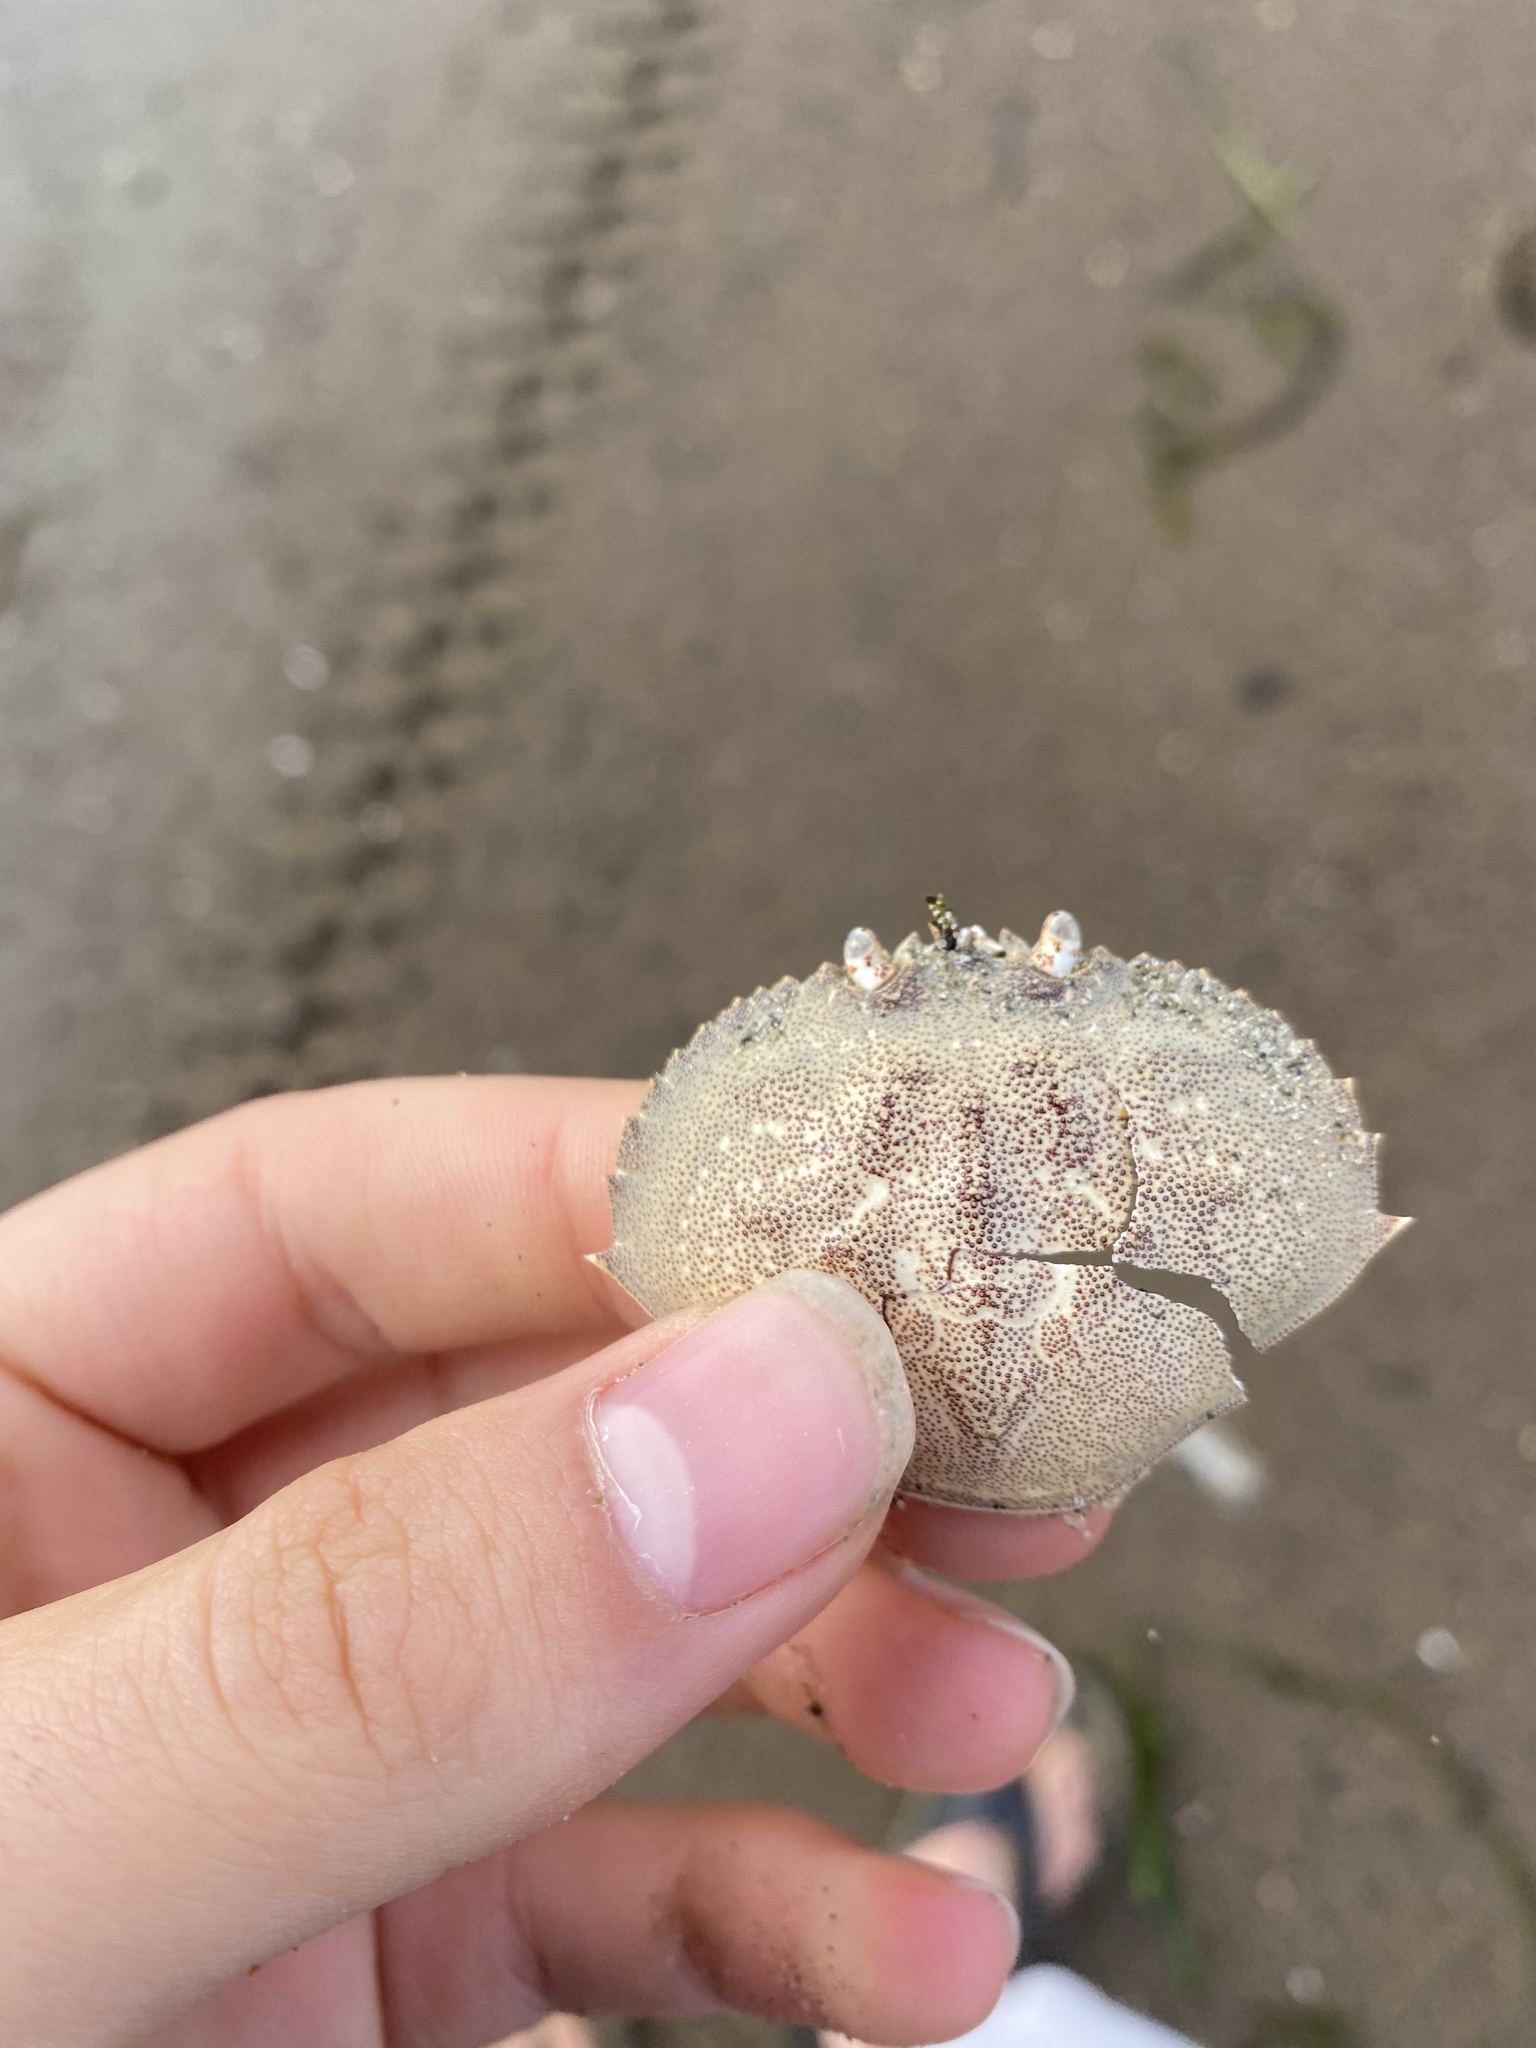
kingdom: Animalia
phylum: Arthropoda
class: Malacostraca
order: Decapoda
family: Cancridae
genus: Metacarcinus
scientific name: Metacarcinus magister
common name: Californian crab
